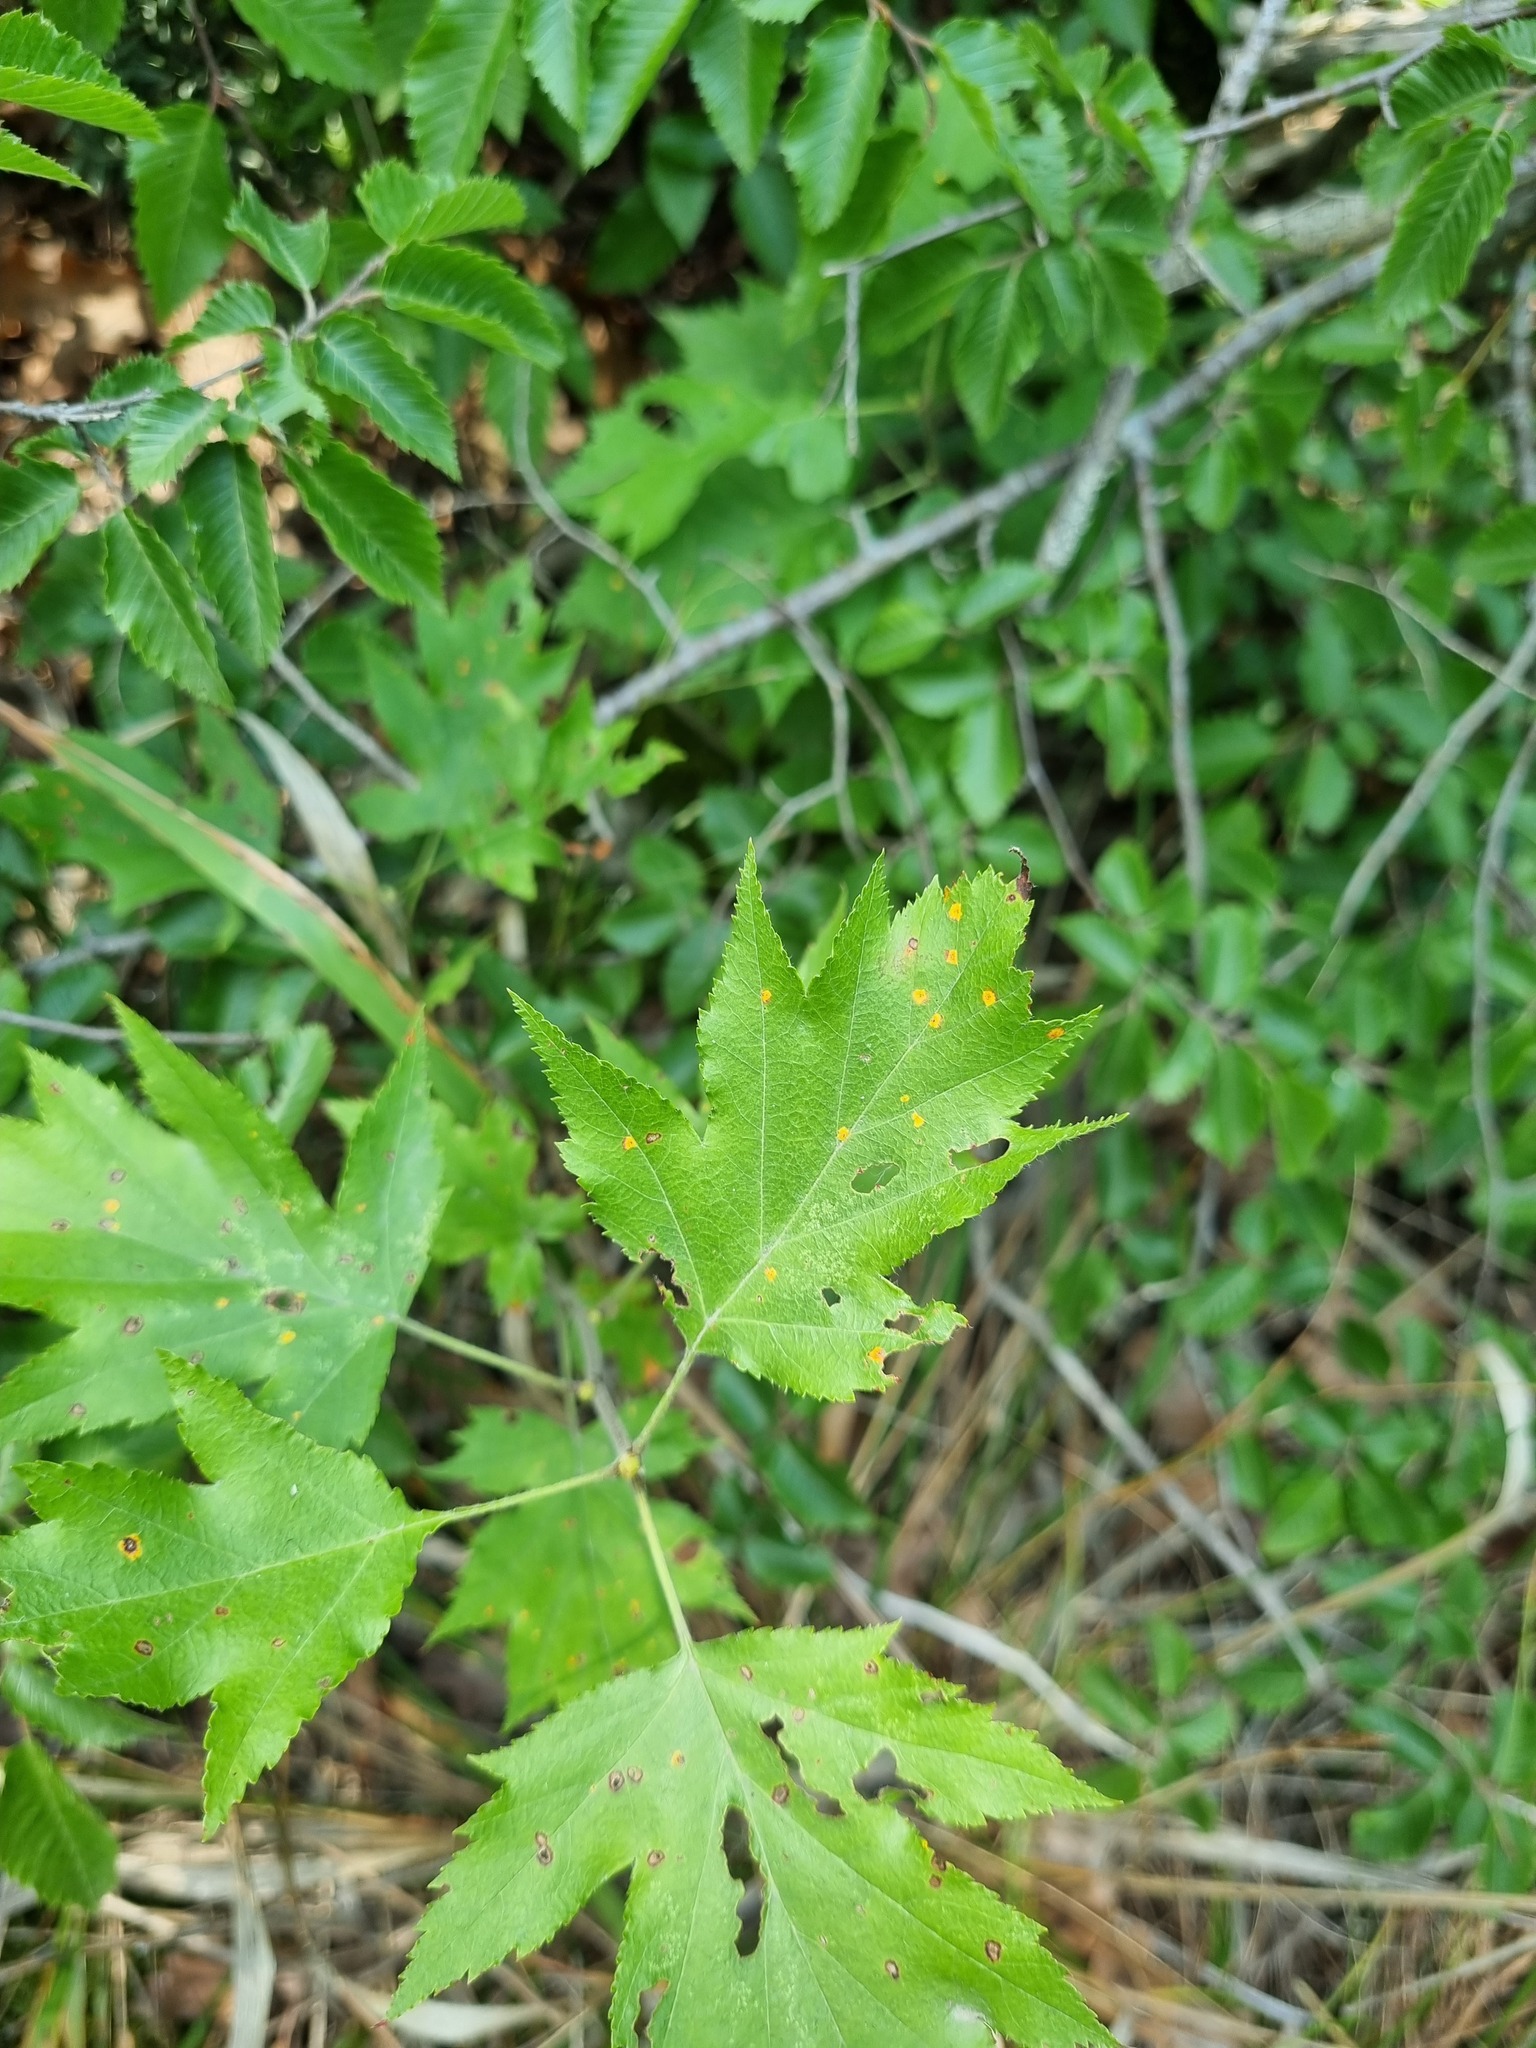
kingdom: Plantae
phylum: Tracheophyta
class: Magnoliopsida
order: Rosales
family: Rosaceae
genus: Torminalis
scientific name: Torminalis glaberrima
